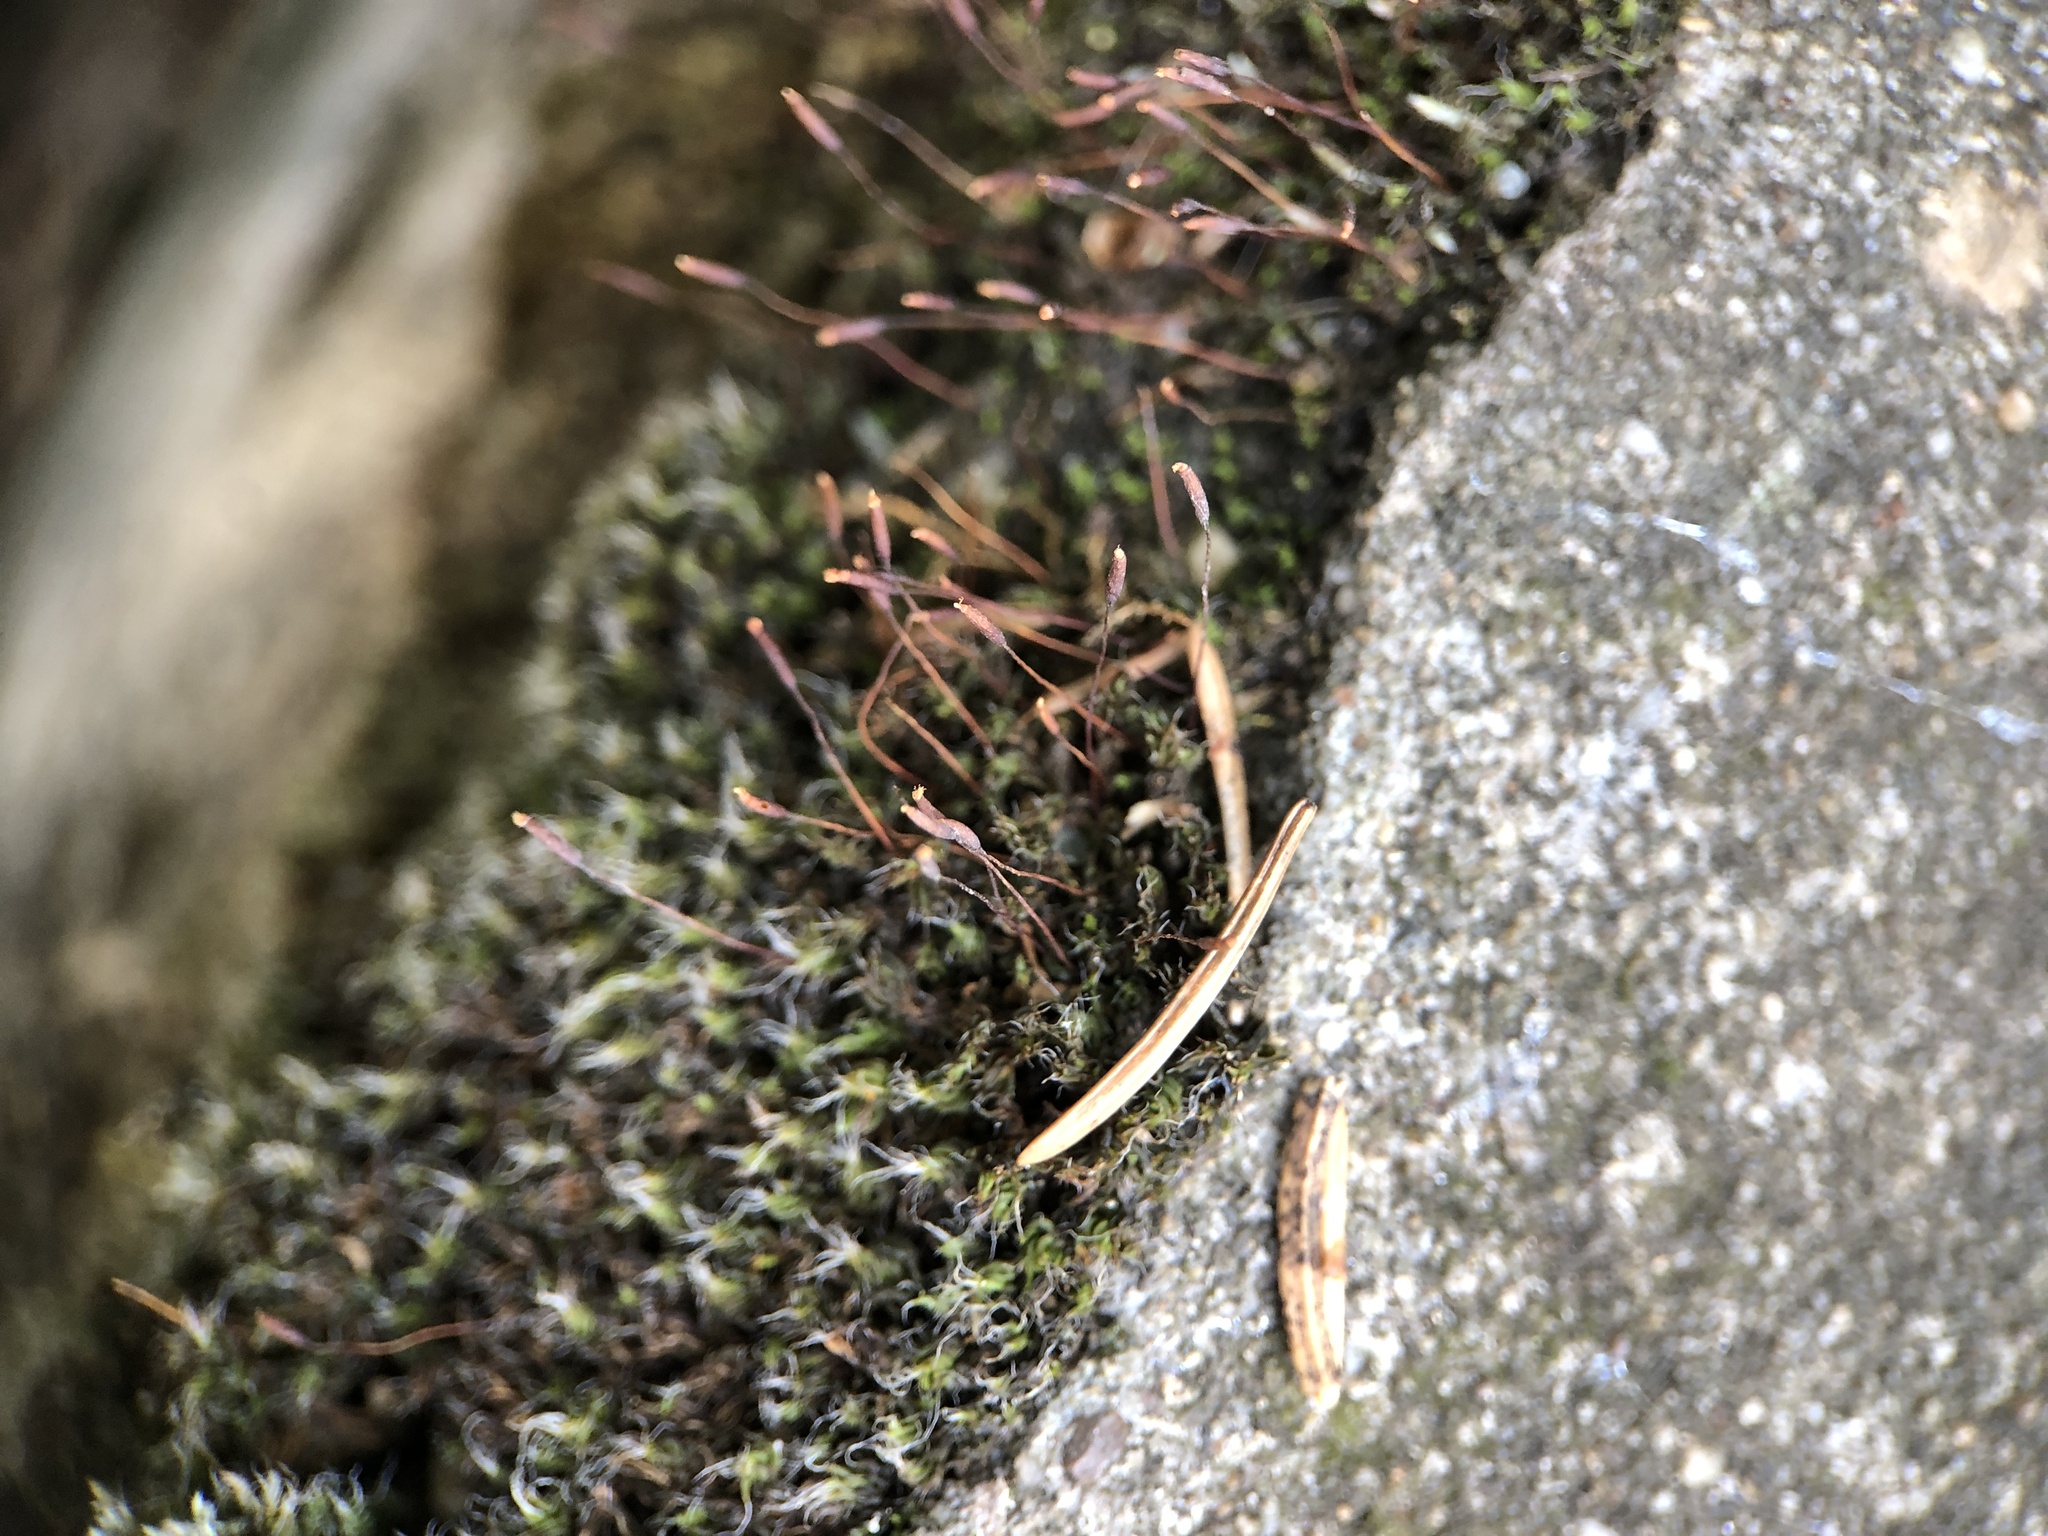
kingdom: Plantae
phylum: Bryophyta
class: Bryopsida
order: Pottiales
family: Pottiaceae
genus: Tortula
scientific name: Tortula muralis
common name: Wall screw-moss
